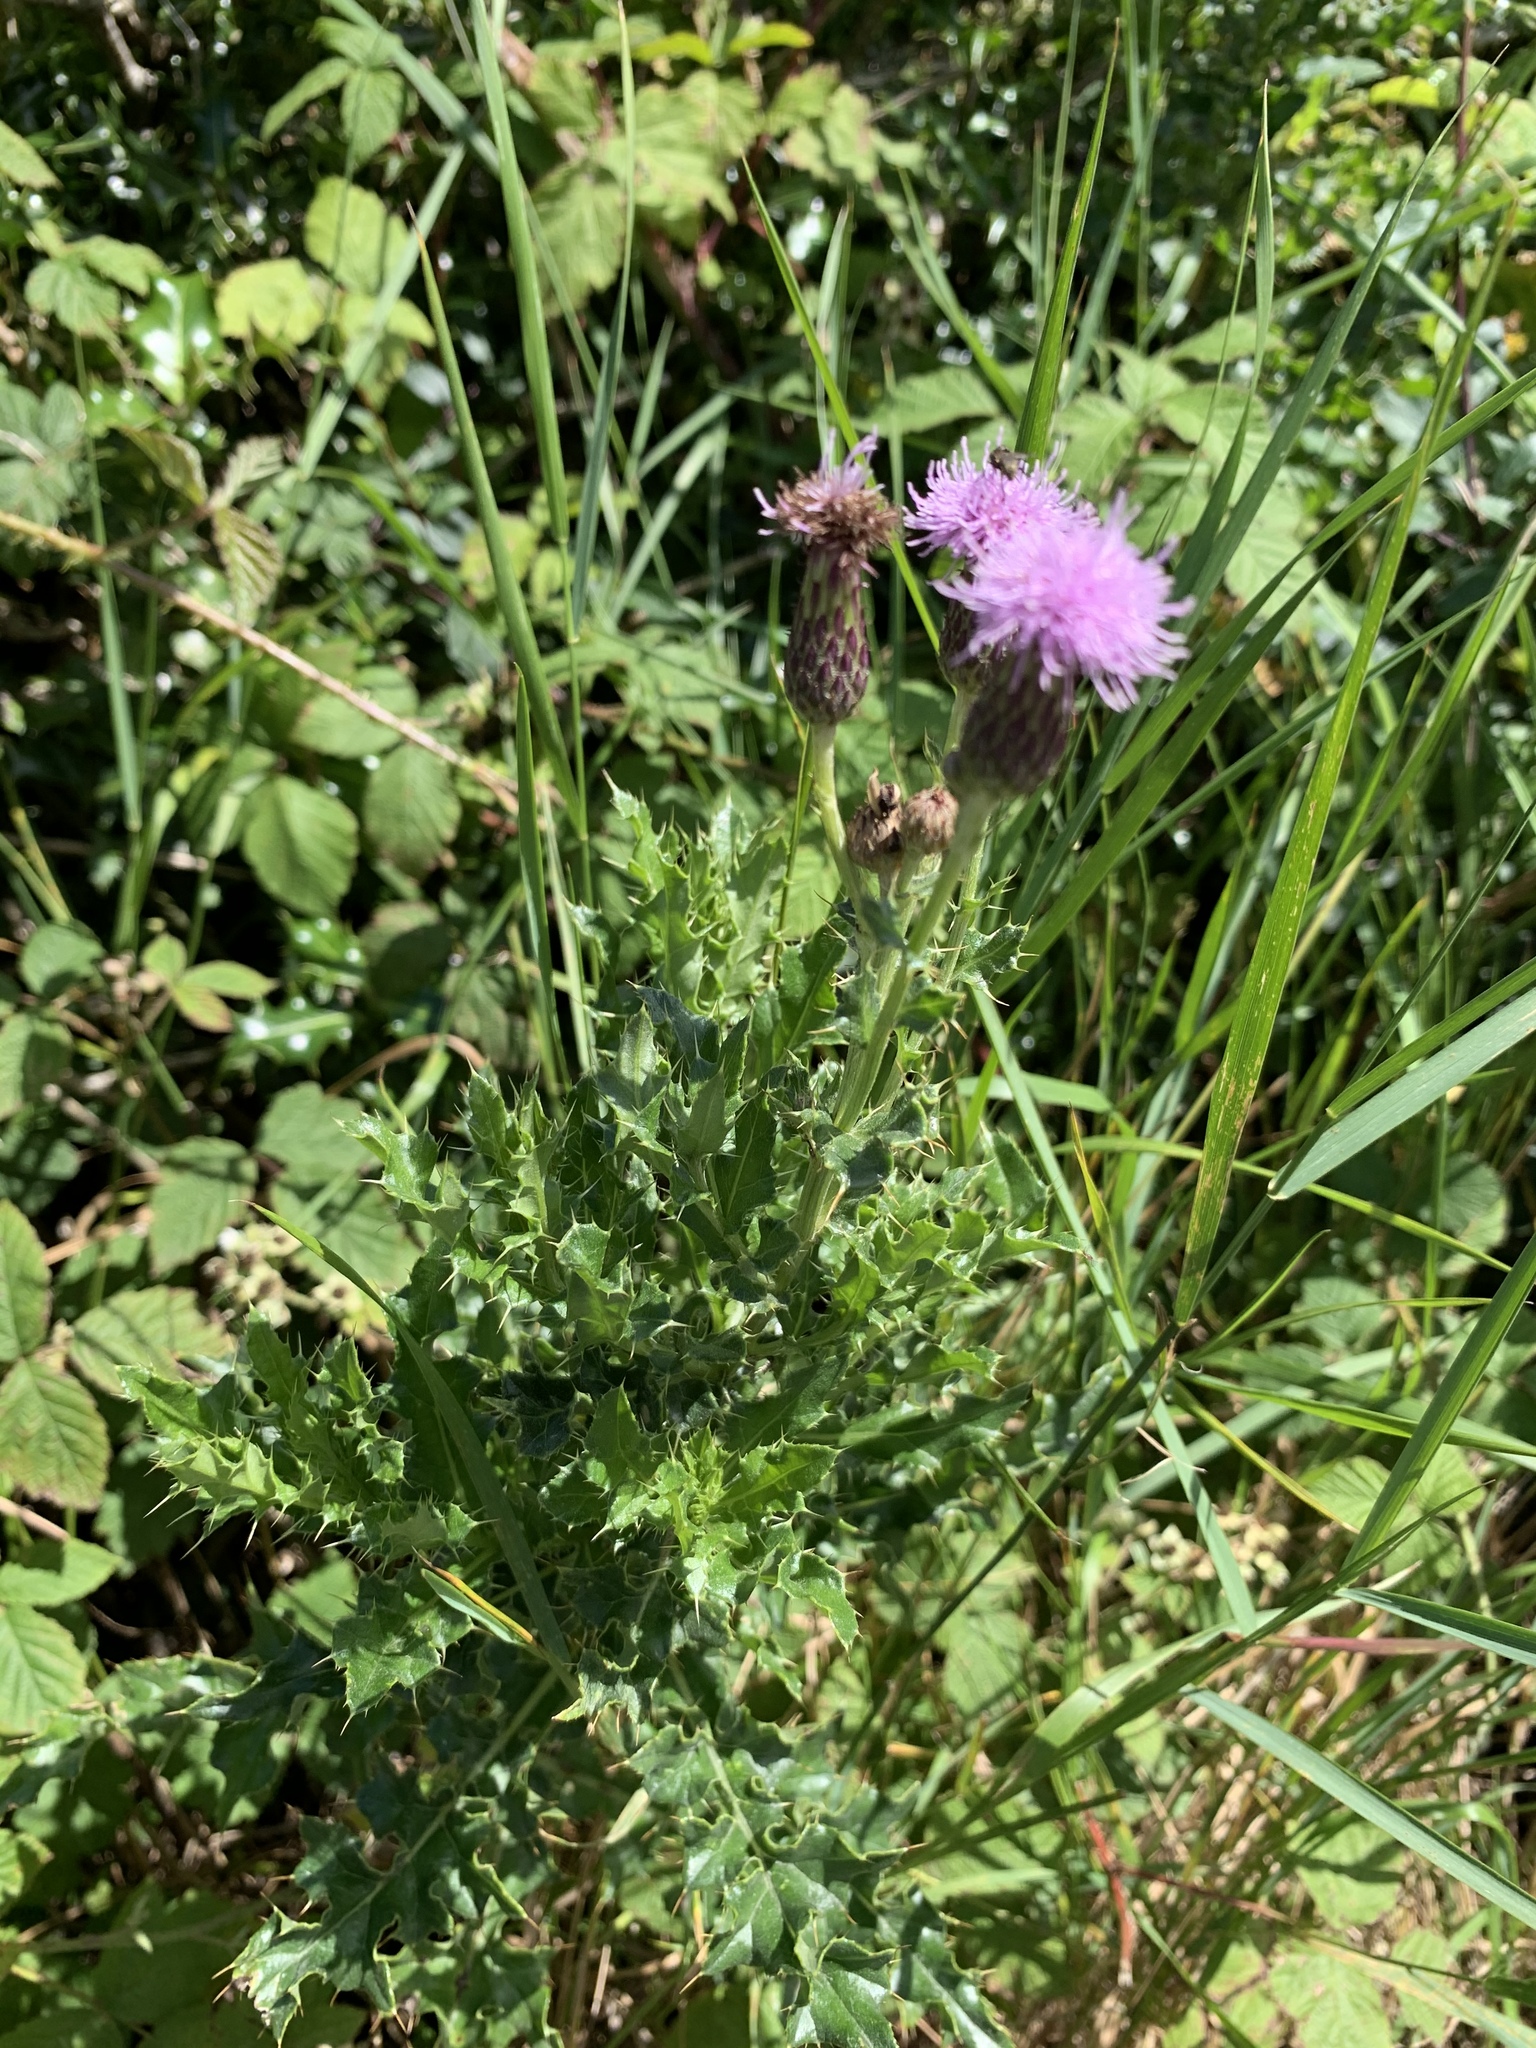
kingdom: Plantae
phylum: Tracheophyta
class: Magnoliopsida
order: Asterales
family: Asteraceae
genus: Cirsium
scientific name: Cirsium arvense
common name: Creeping thistle
